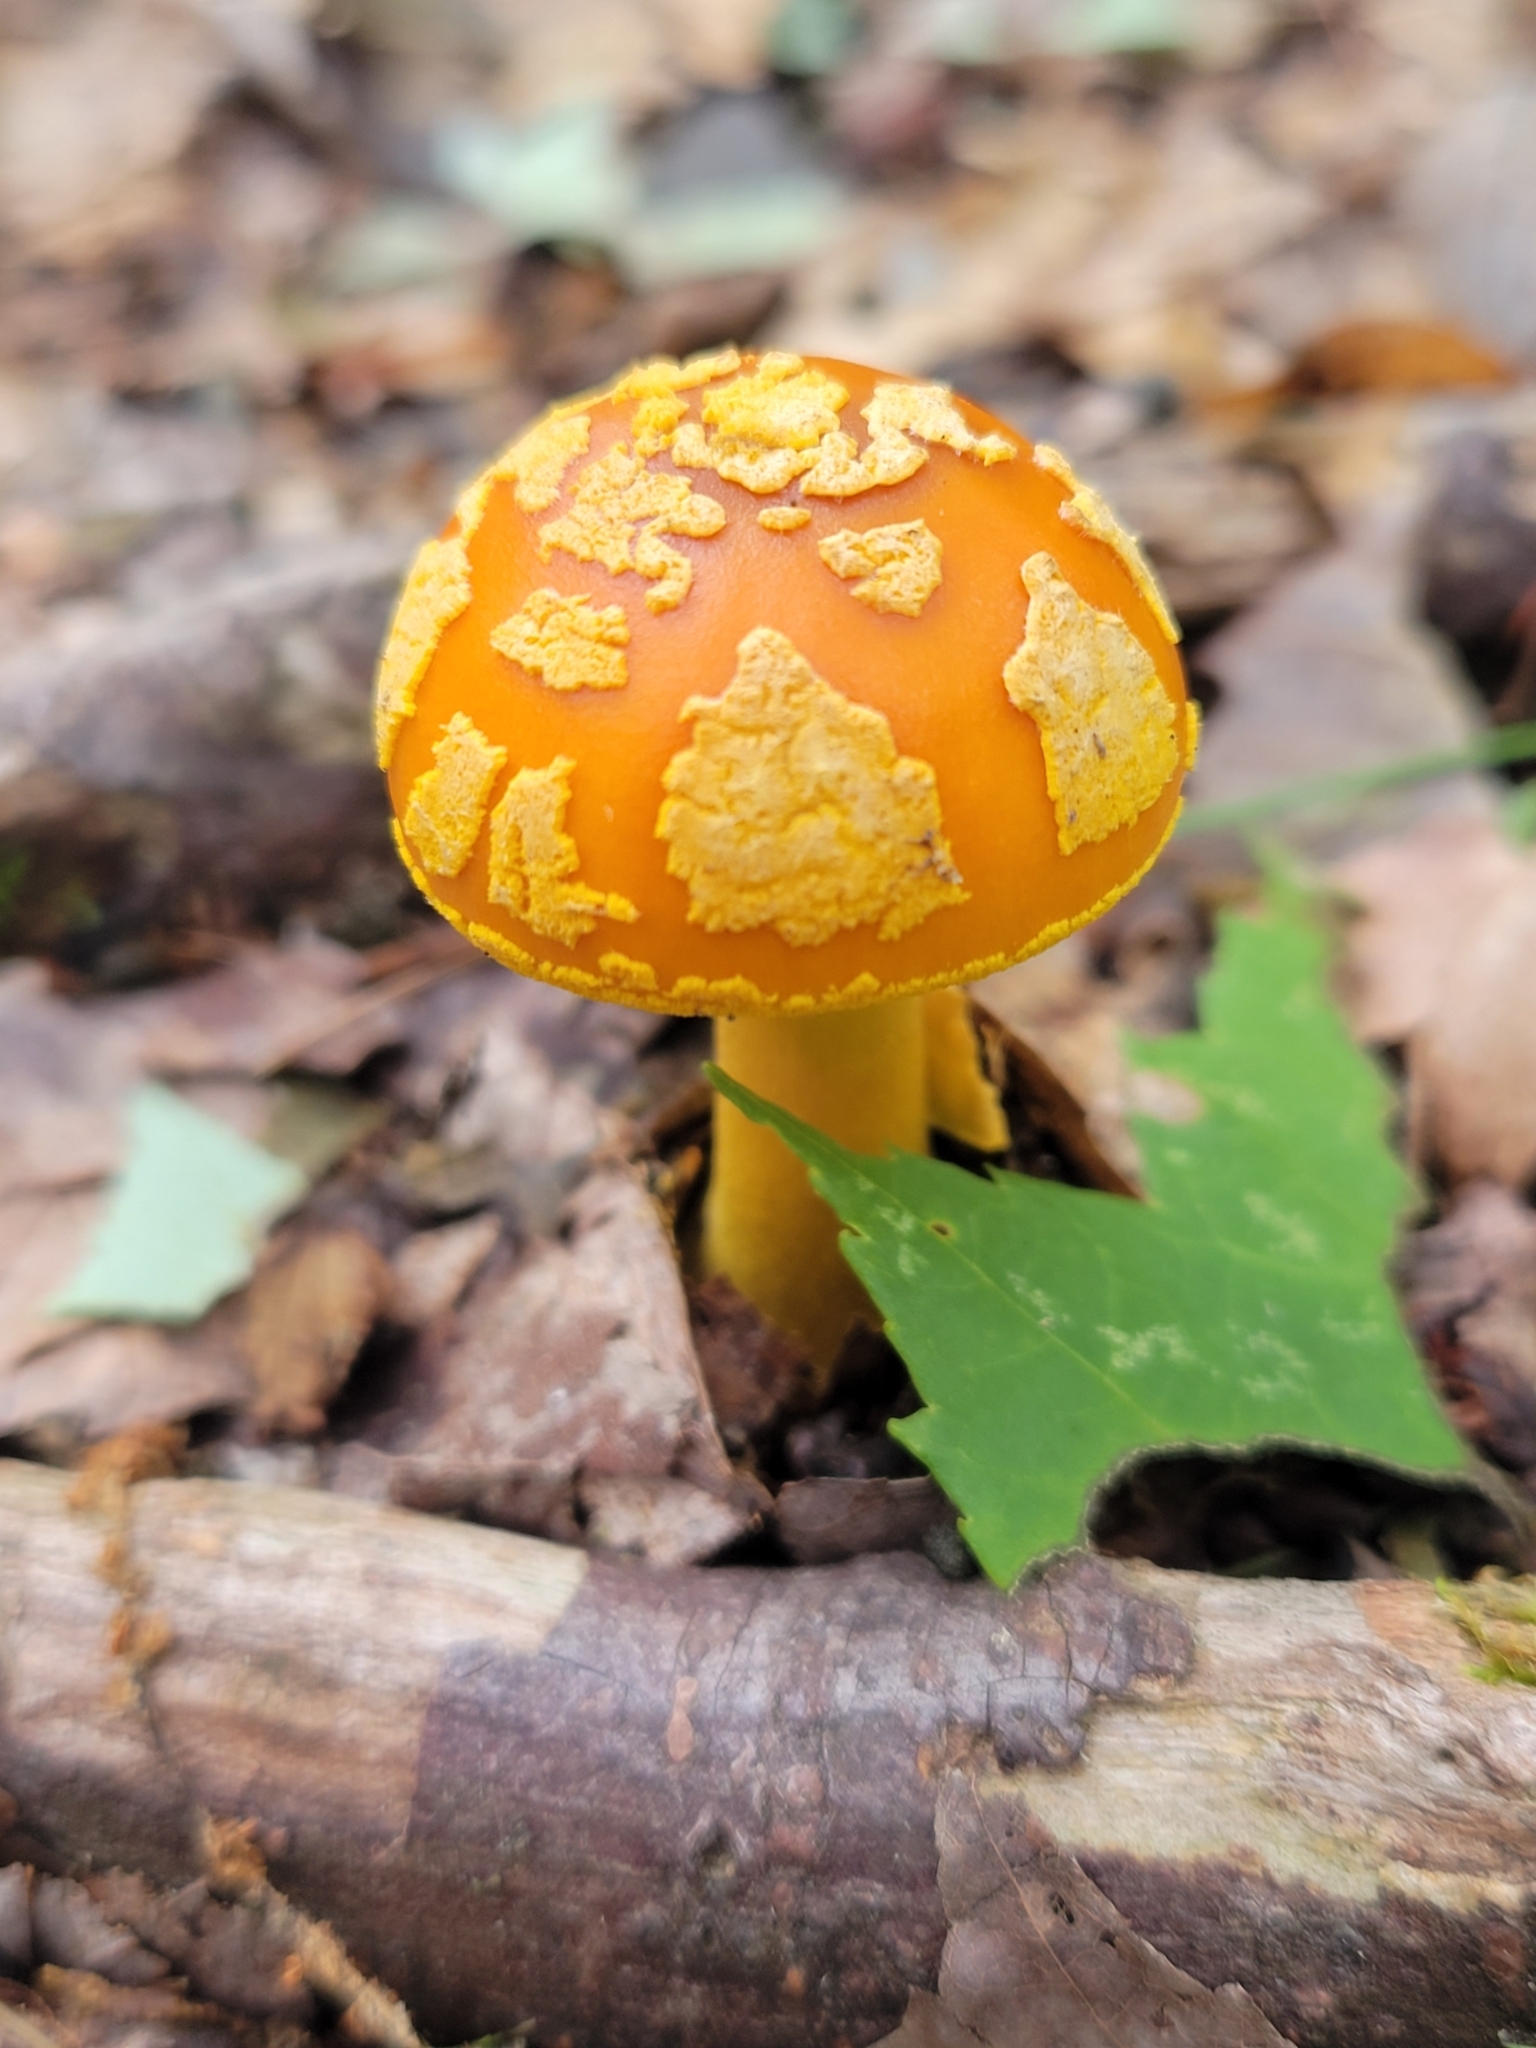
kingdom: Fungi
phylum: Basidiomycota
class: Agaricomycetes
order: Agaricales
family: Amanitaceae
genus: Amanita
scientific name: Amanita flavoconia
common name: Yellow patches
